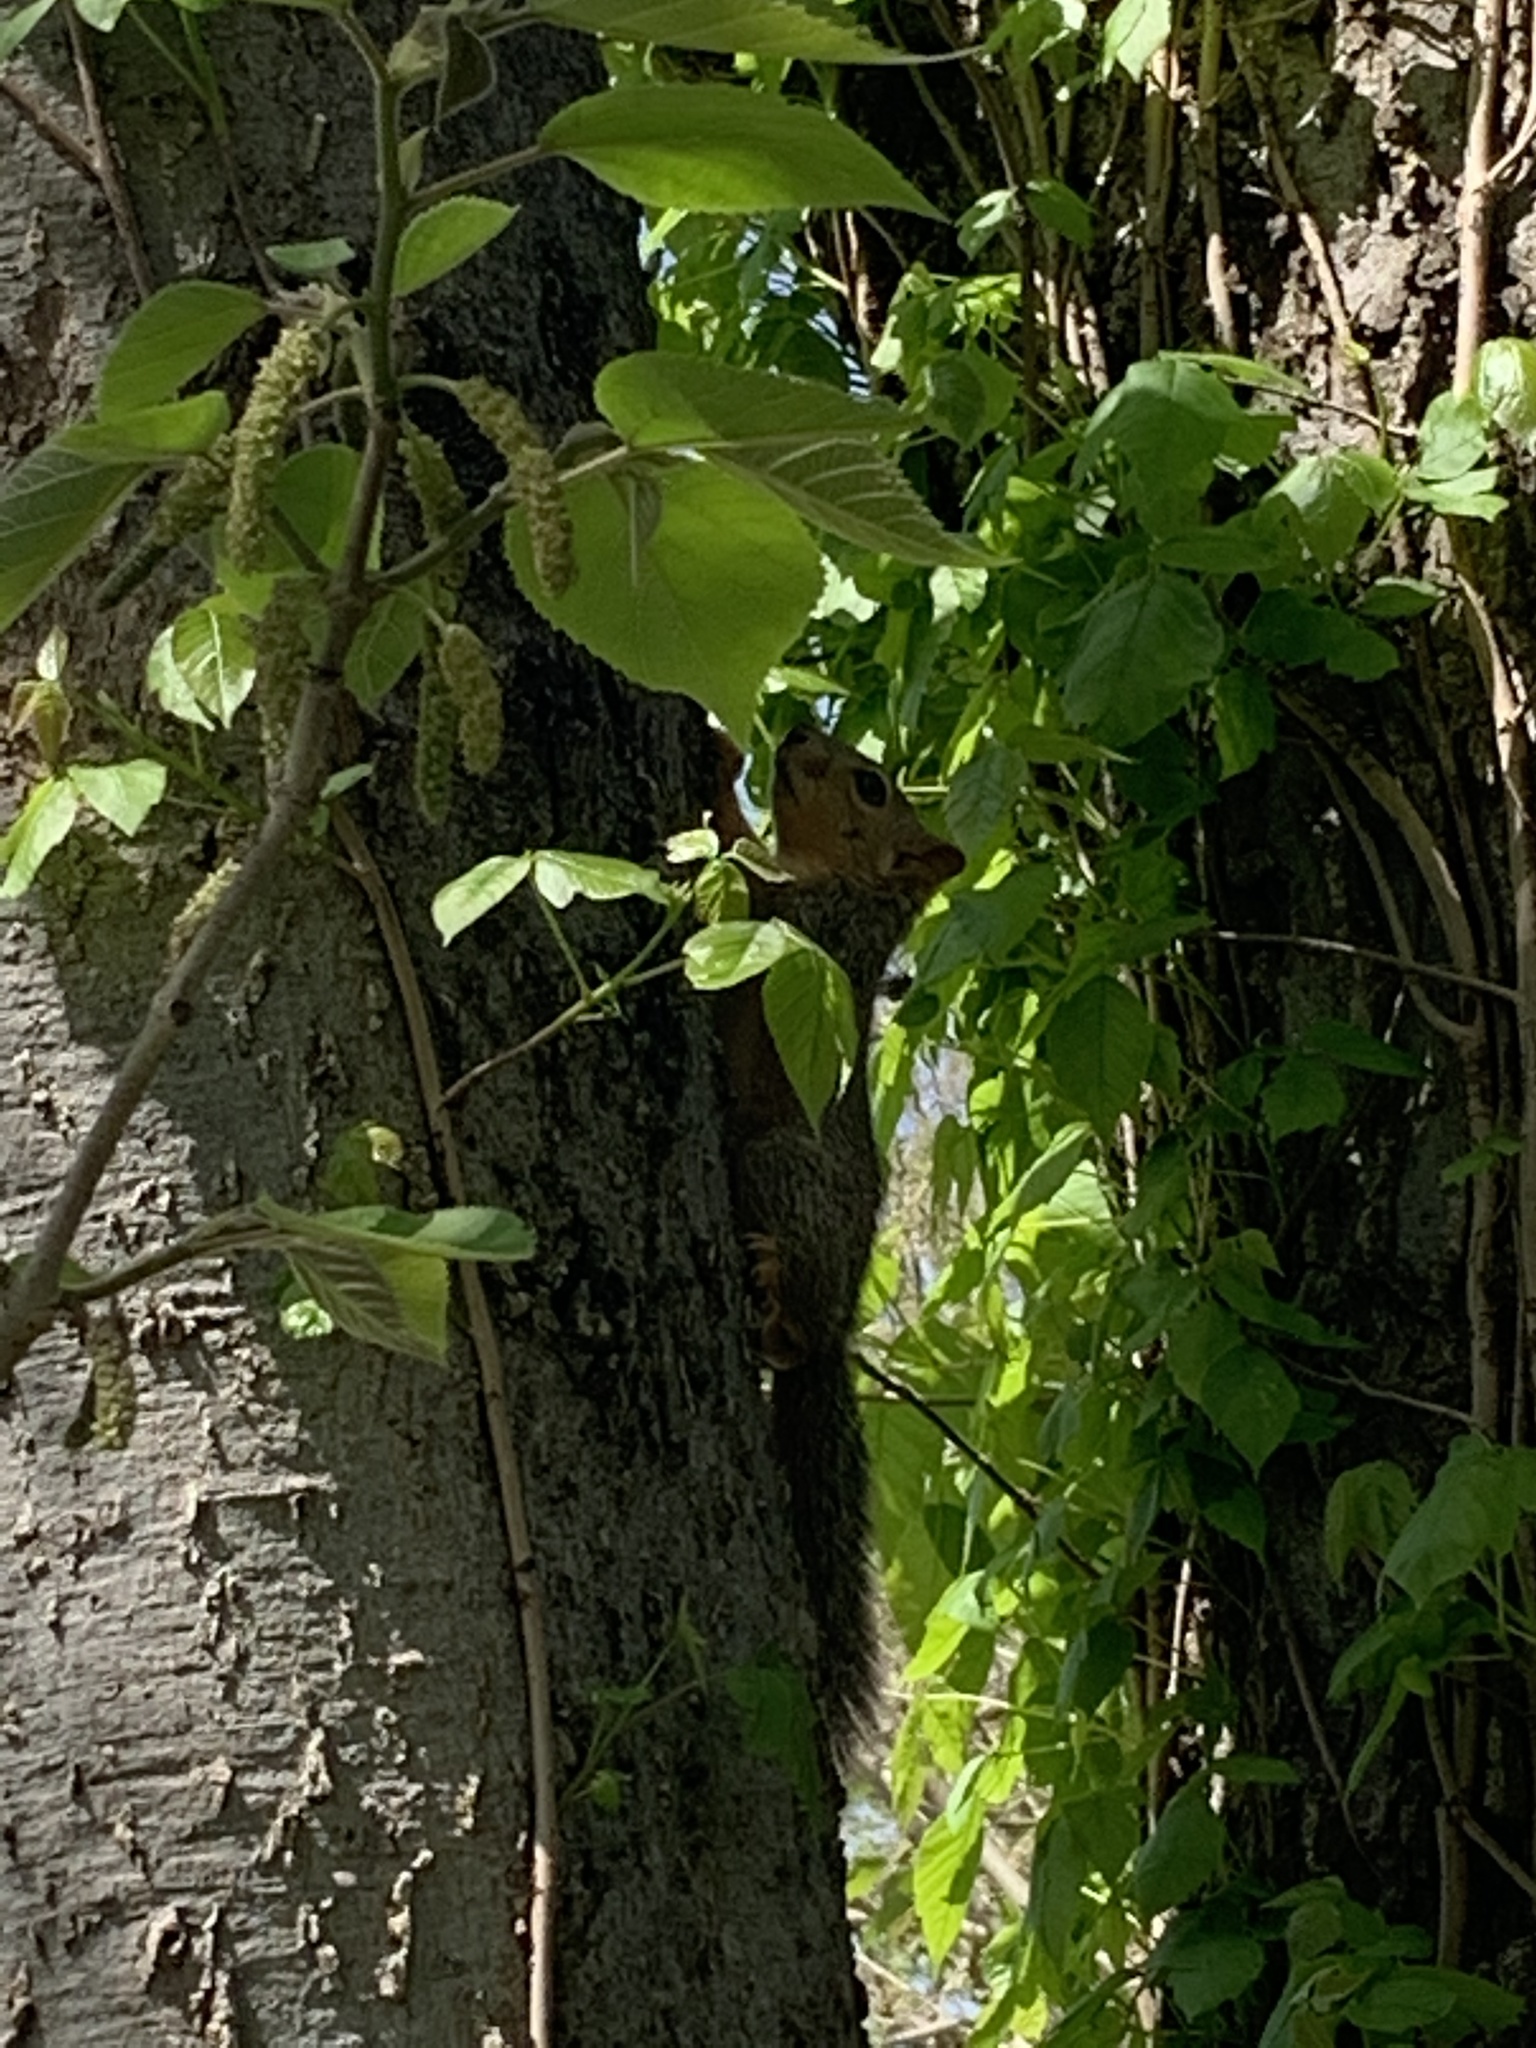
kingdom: Animalia
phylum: Chordata
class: Mammalia
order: Rodentia
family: Sciuridae
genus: Sciurus
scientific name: Sciurus niger
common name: Fox squirrel
